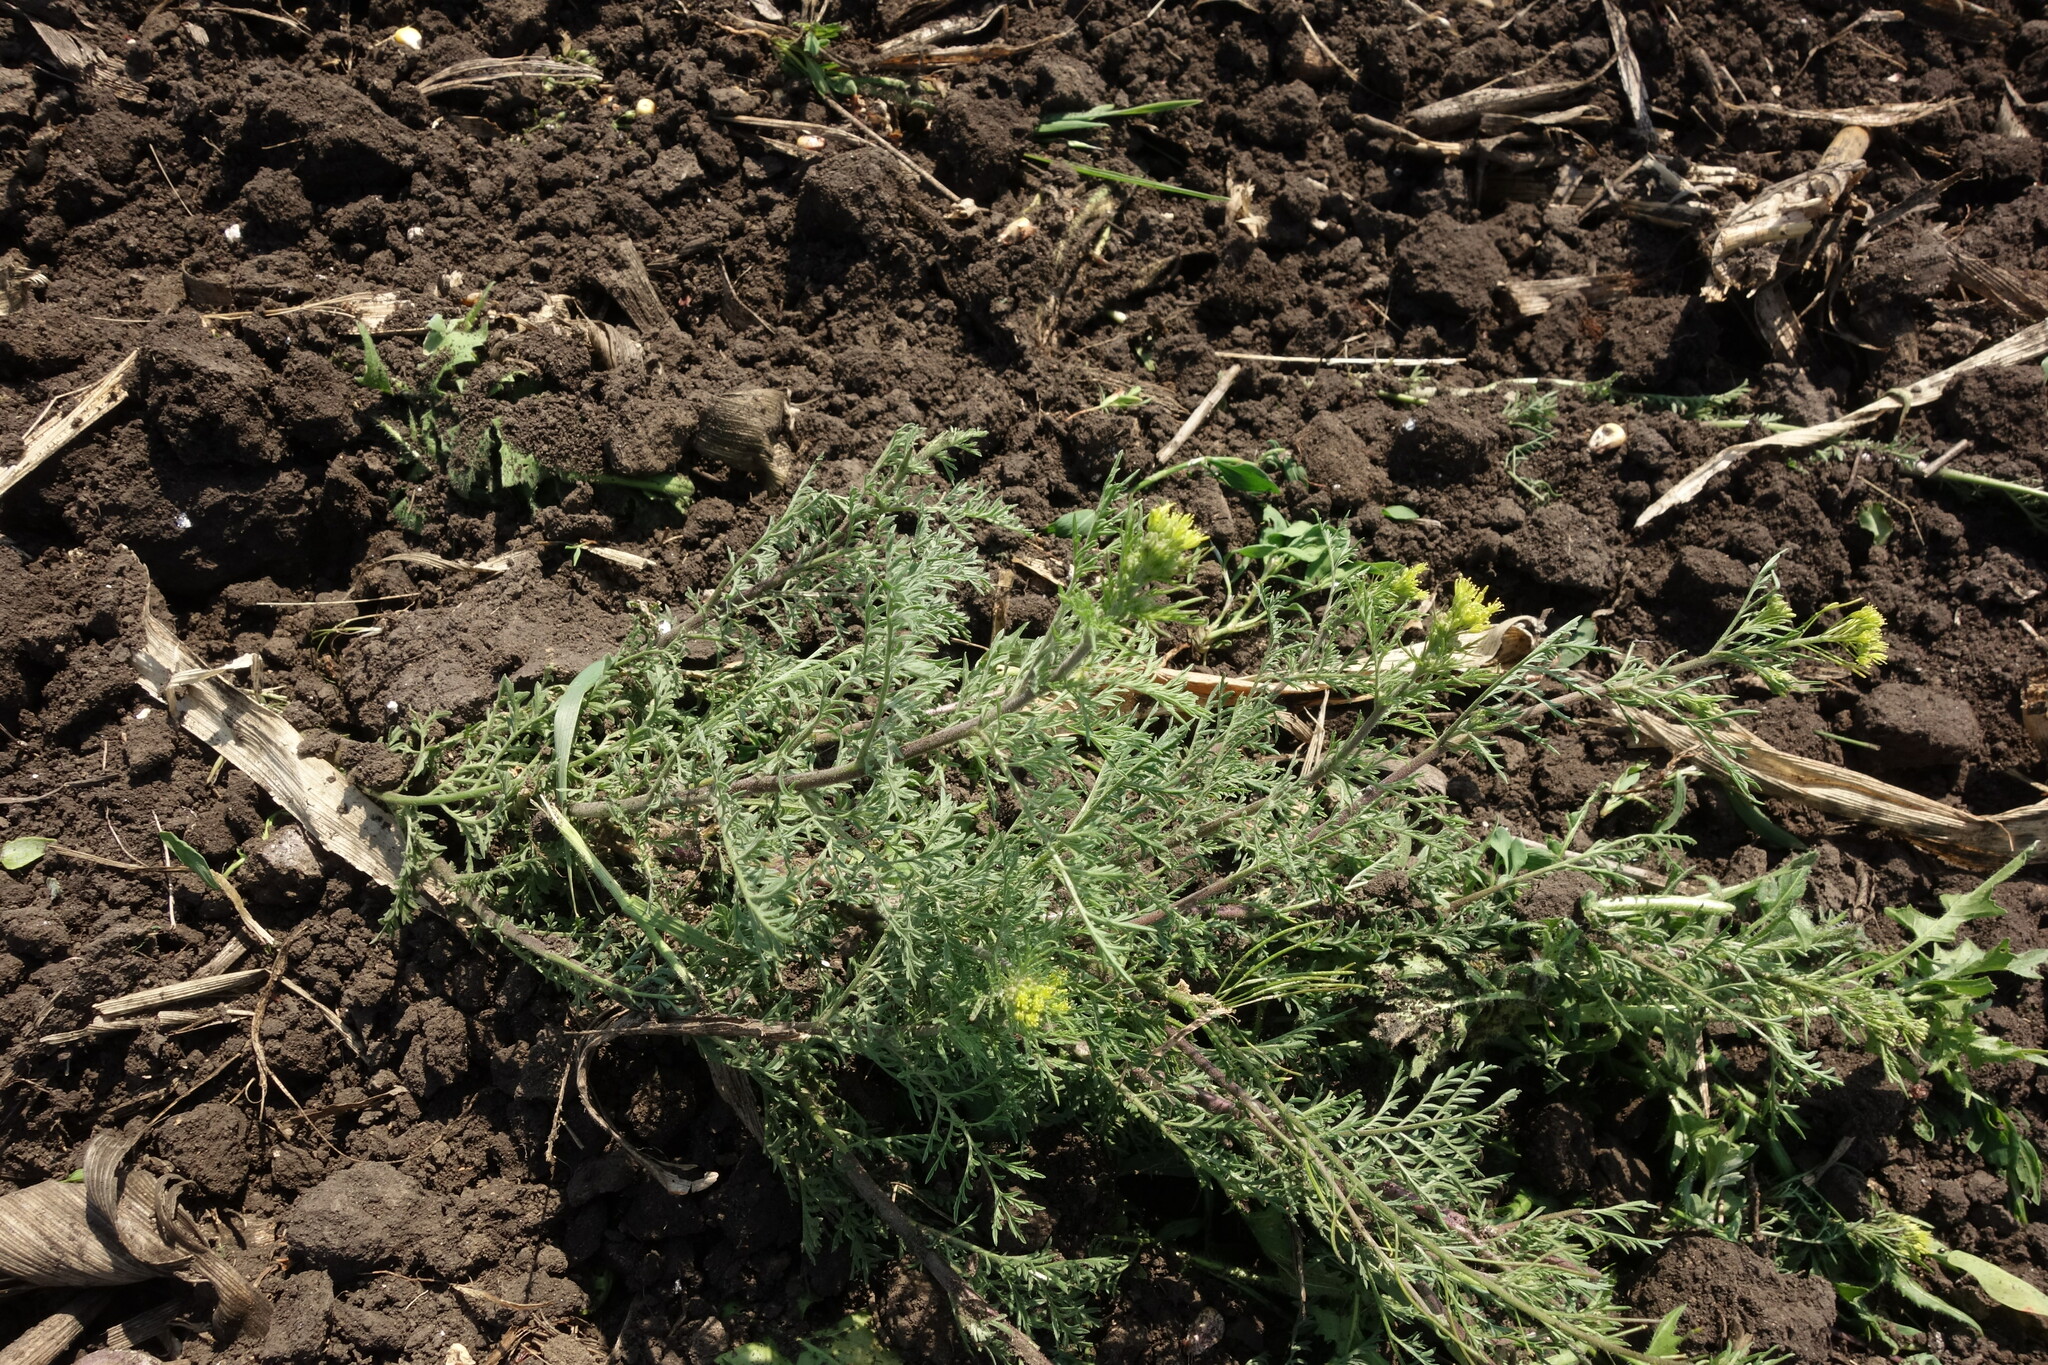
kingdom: Plantae
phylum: Tracheophyta
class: Magnoliopsida
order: Brassicales
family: Brassicaceae
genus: Descurainia
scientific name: Descurainia sophia
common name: Flixweed
